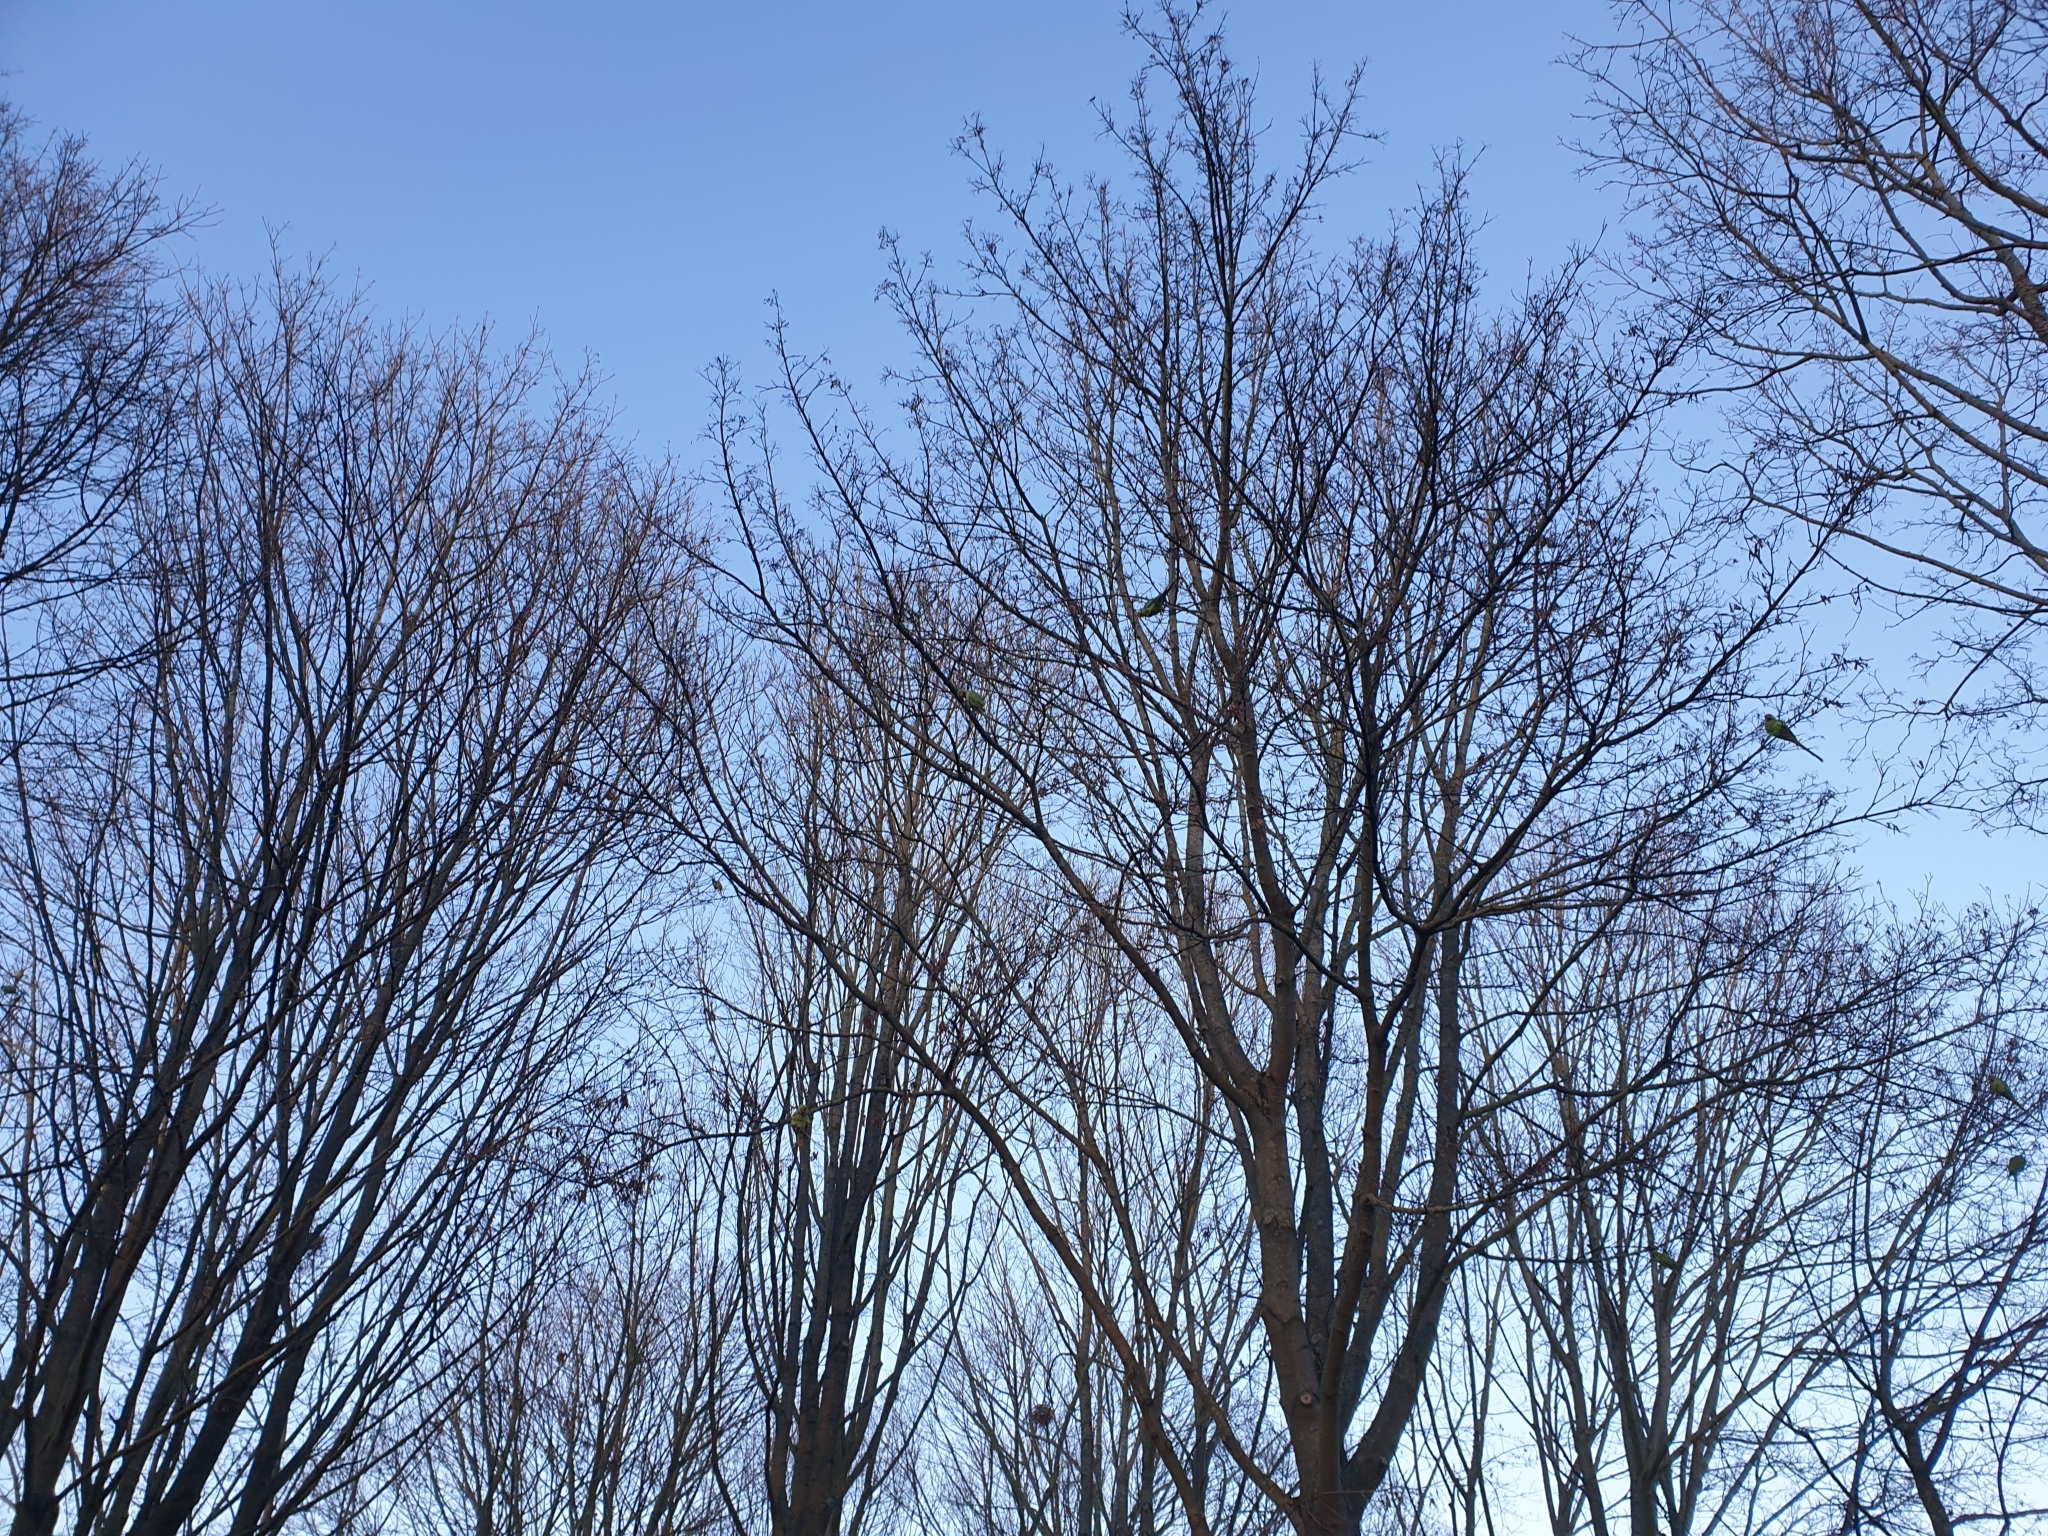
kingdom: Animalia
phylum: Chordata
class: Aves
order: Psittaciformes
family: Psittacidae
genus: Psittacula
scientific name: Psittacula krameri
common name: Rose-ringed parakeet
